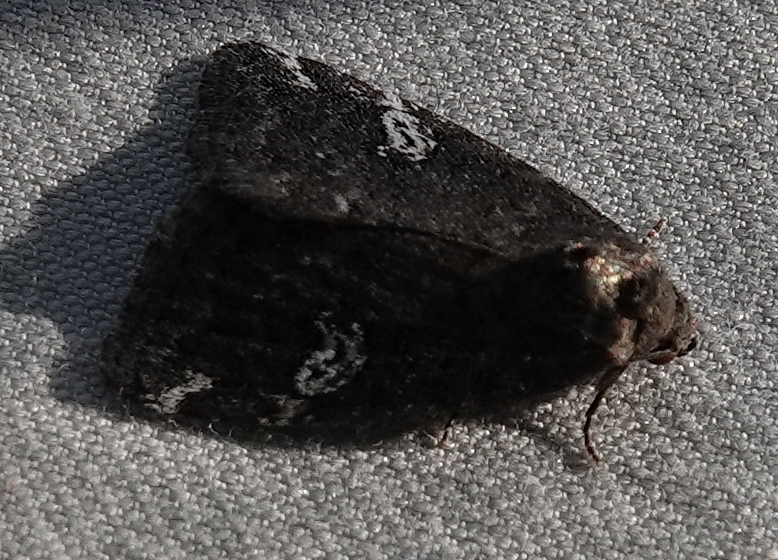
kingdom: Animalia
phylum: Arthropoda
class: Insecta
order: Lepidoptera
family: Noctuidae
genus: Anterastria
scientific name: Anterastria teratophora
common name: Gray marvel moth
